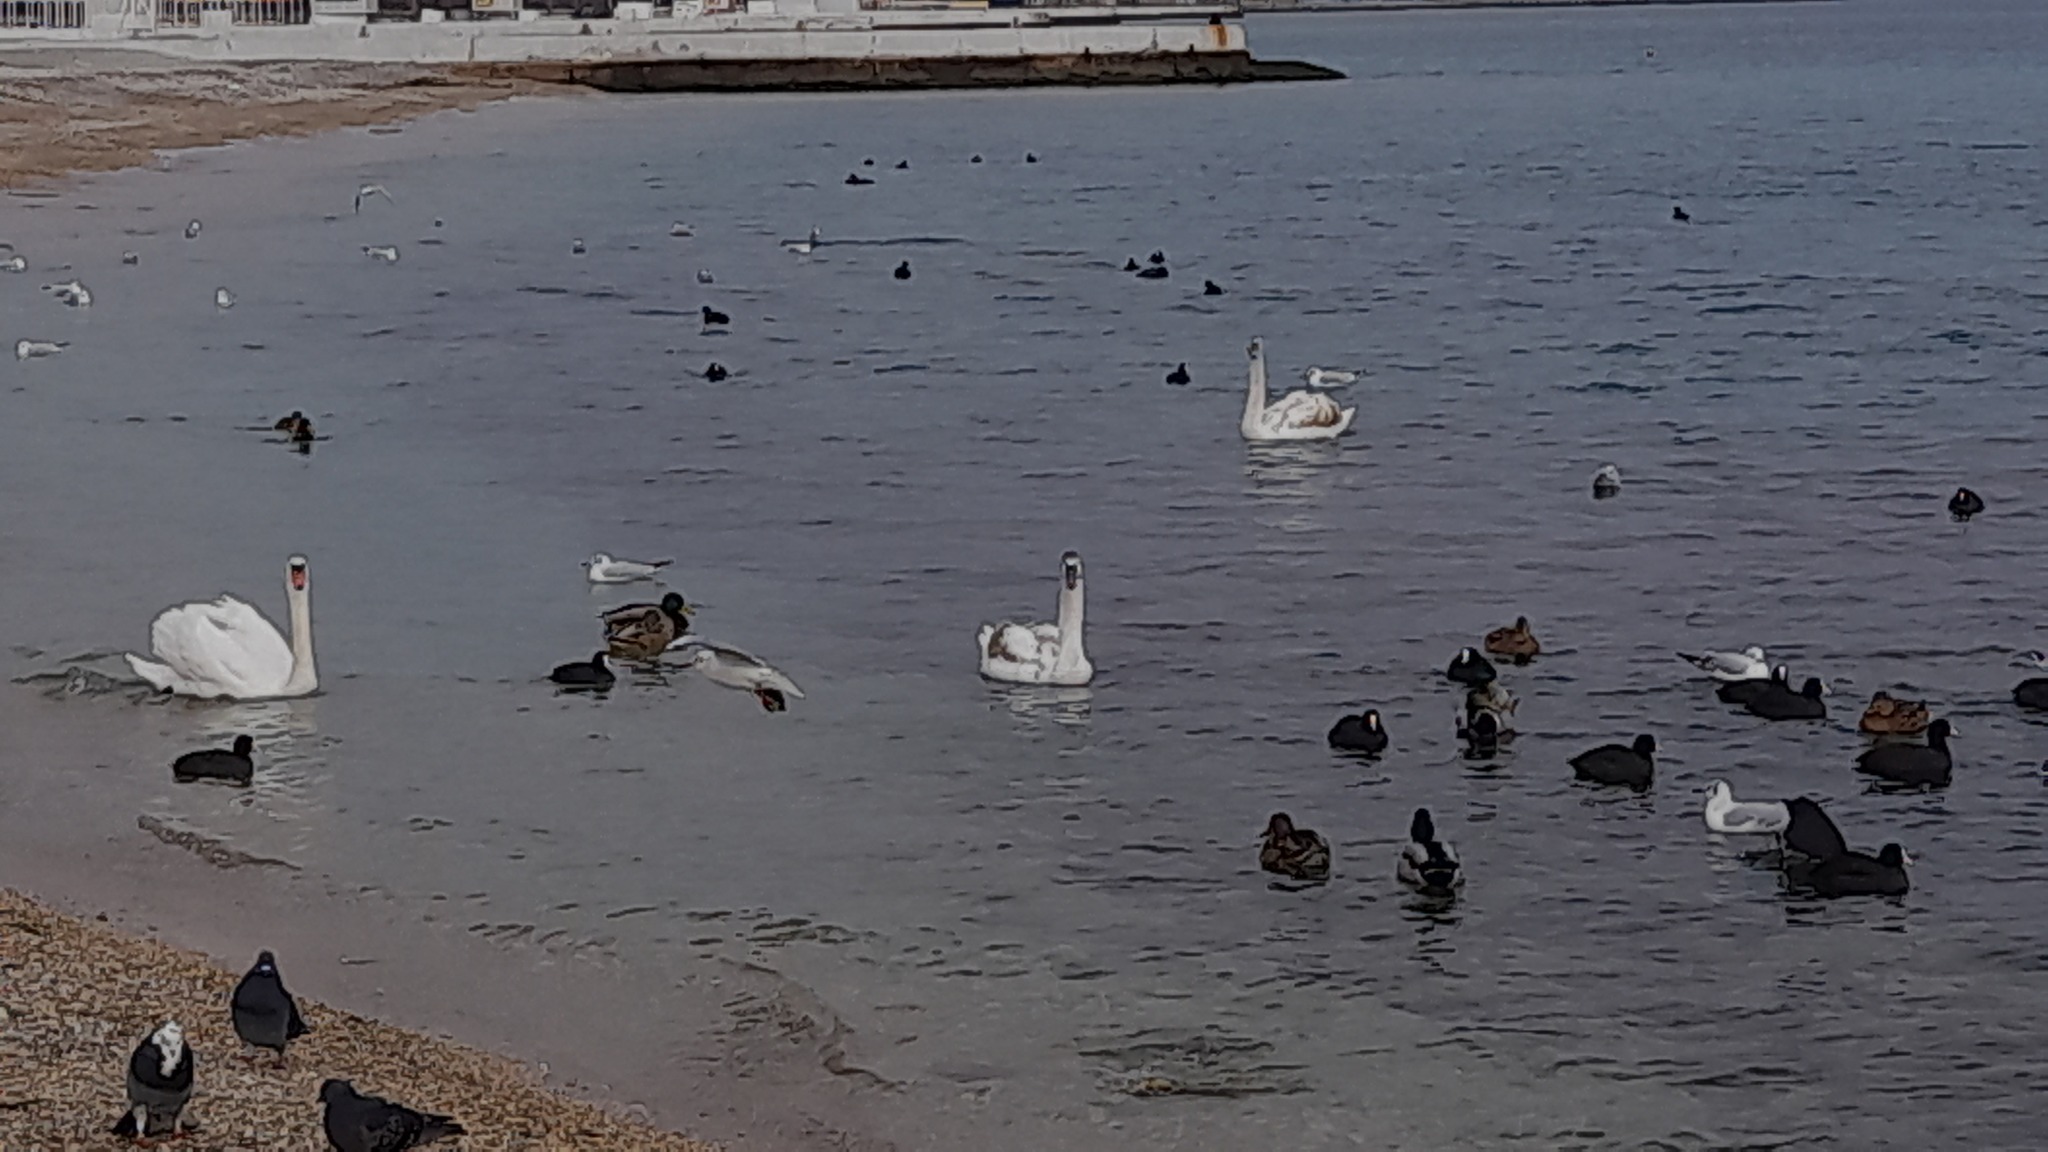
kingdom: Animalia
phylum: Chordata
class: Aves
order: Anseriformes
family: Anatidae
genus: Cygnus
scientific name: Cygnus olor
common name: Mute swan
